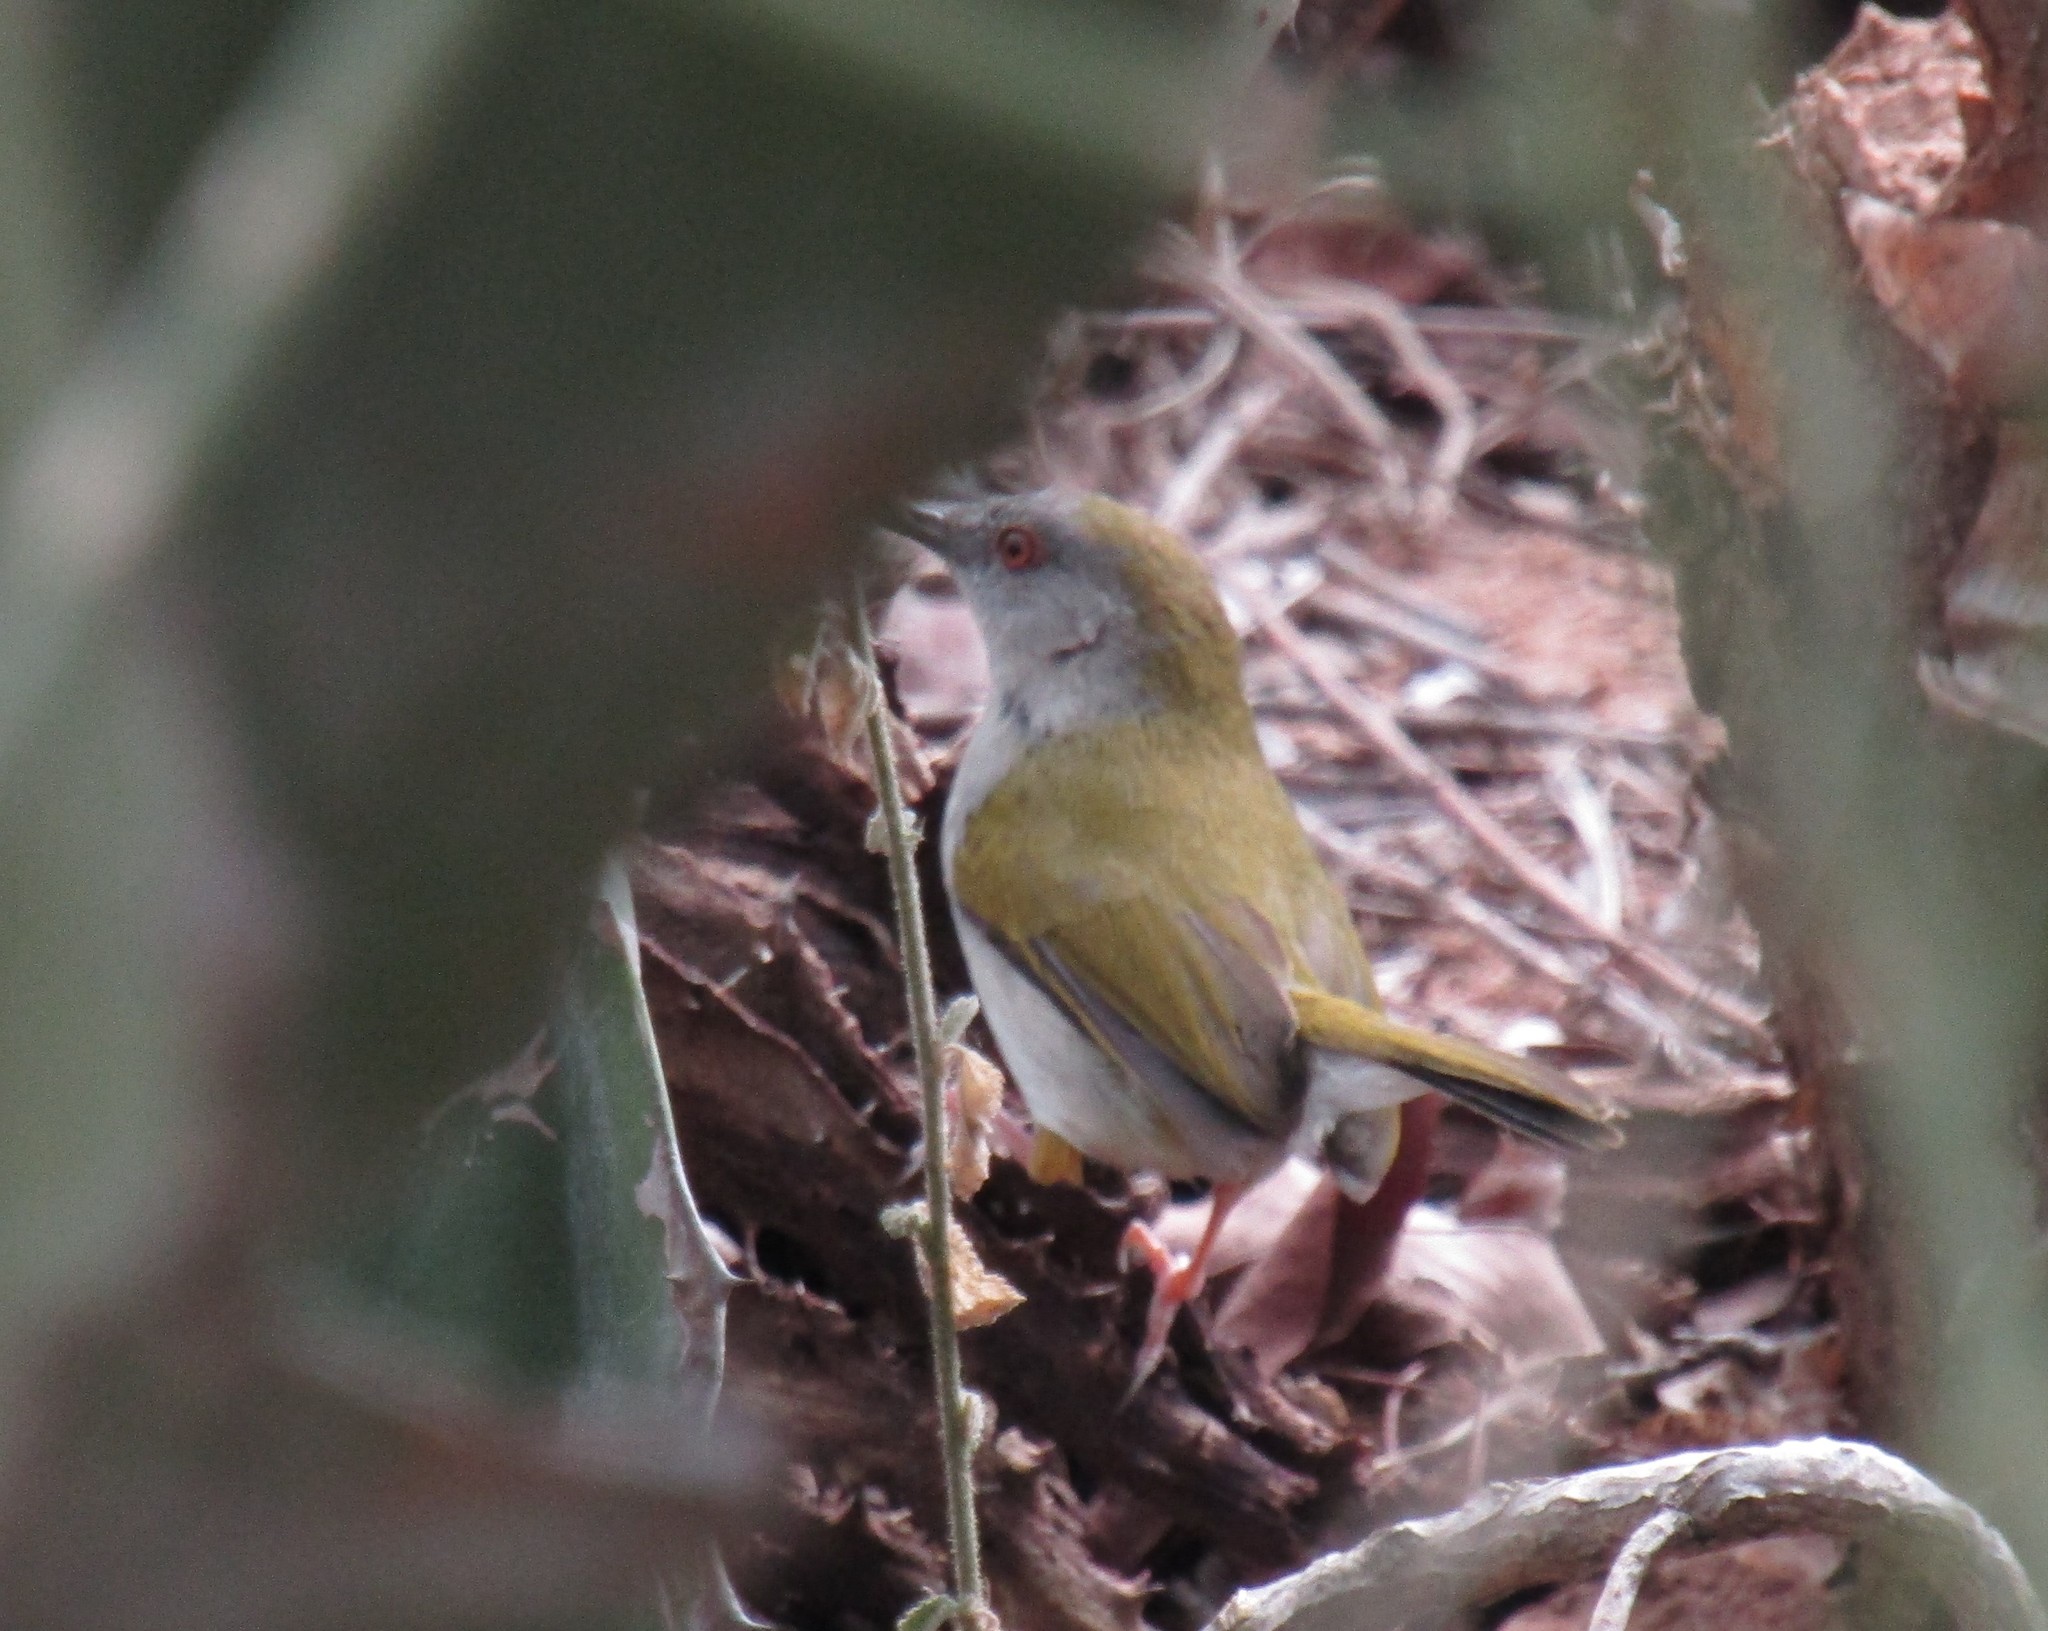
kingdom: Animalia
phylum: Chordata
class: Aves
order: Passeriformes
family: Cisticolidae
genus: Camaroptera
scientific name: Camaroptera brachyura
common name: Green-backed camaroptera
